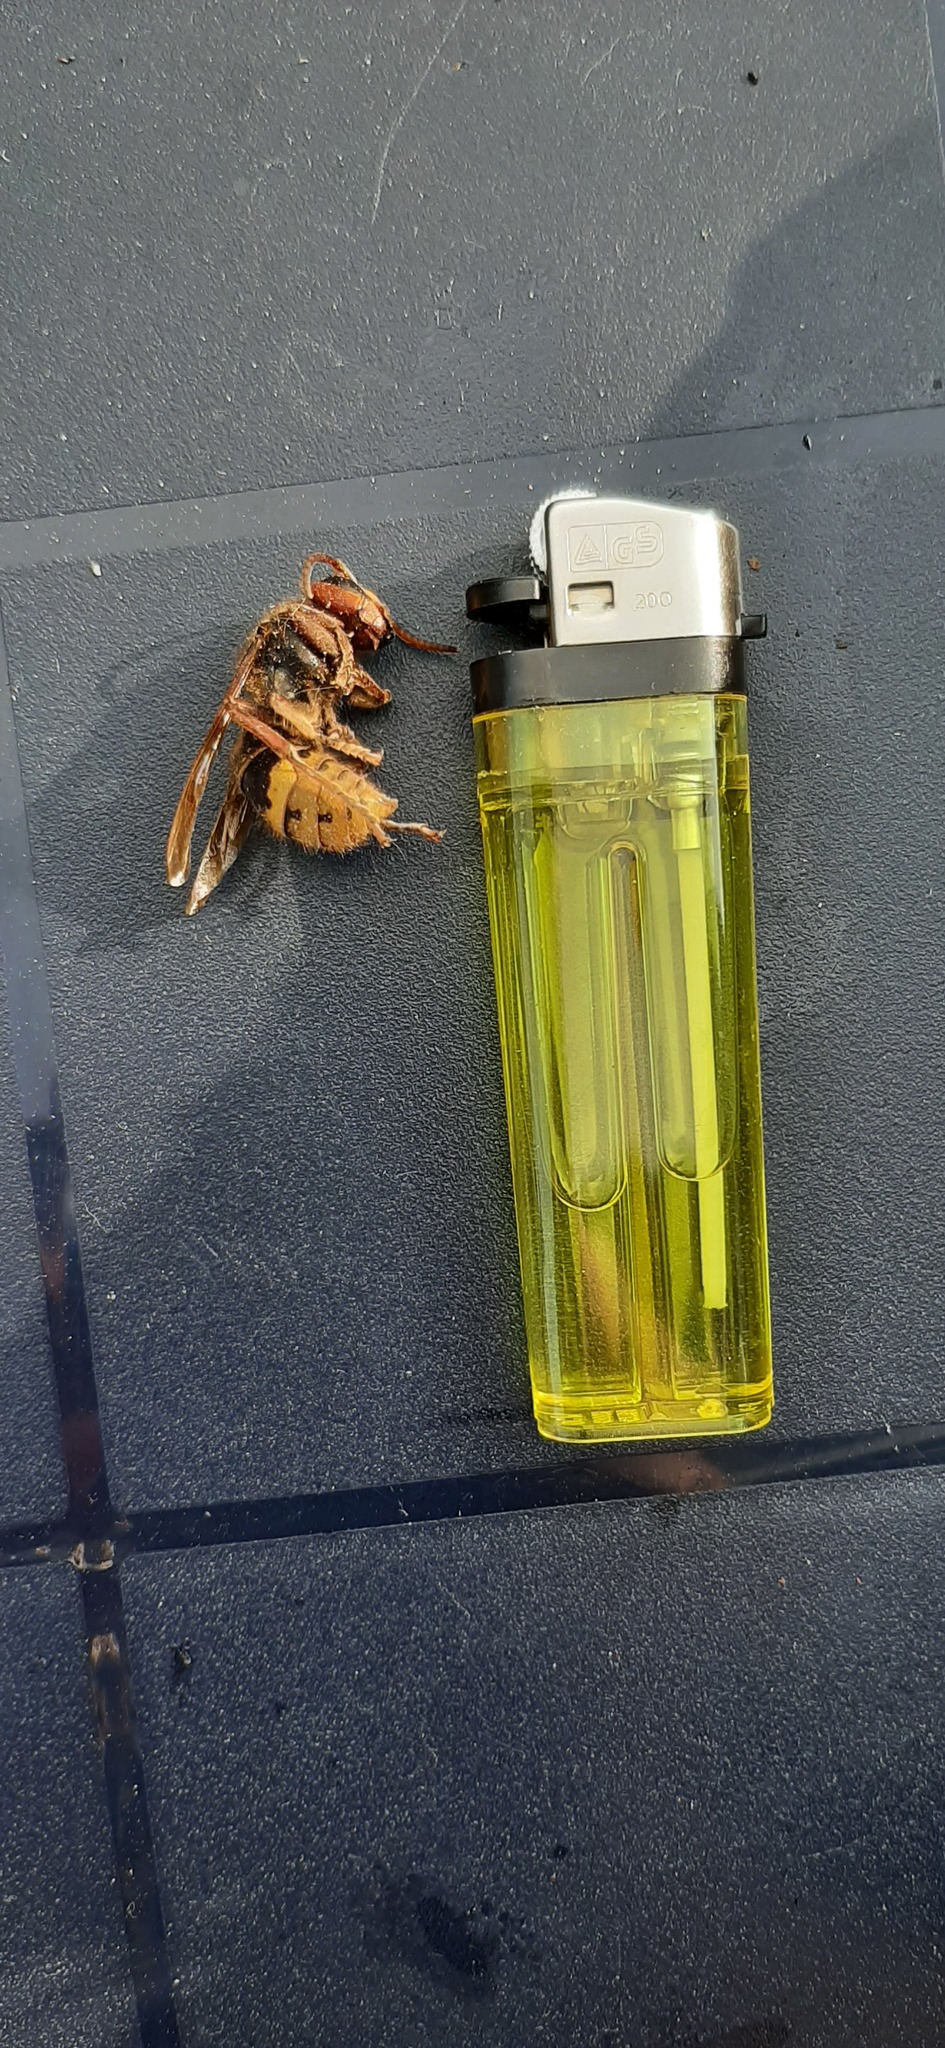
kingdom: Animalia
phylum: Arthropoda
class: Insecta
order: Hymenoptera
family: Vespidae
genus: Vespa
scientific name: Vespa crabro
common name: Hornet
